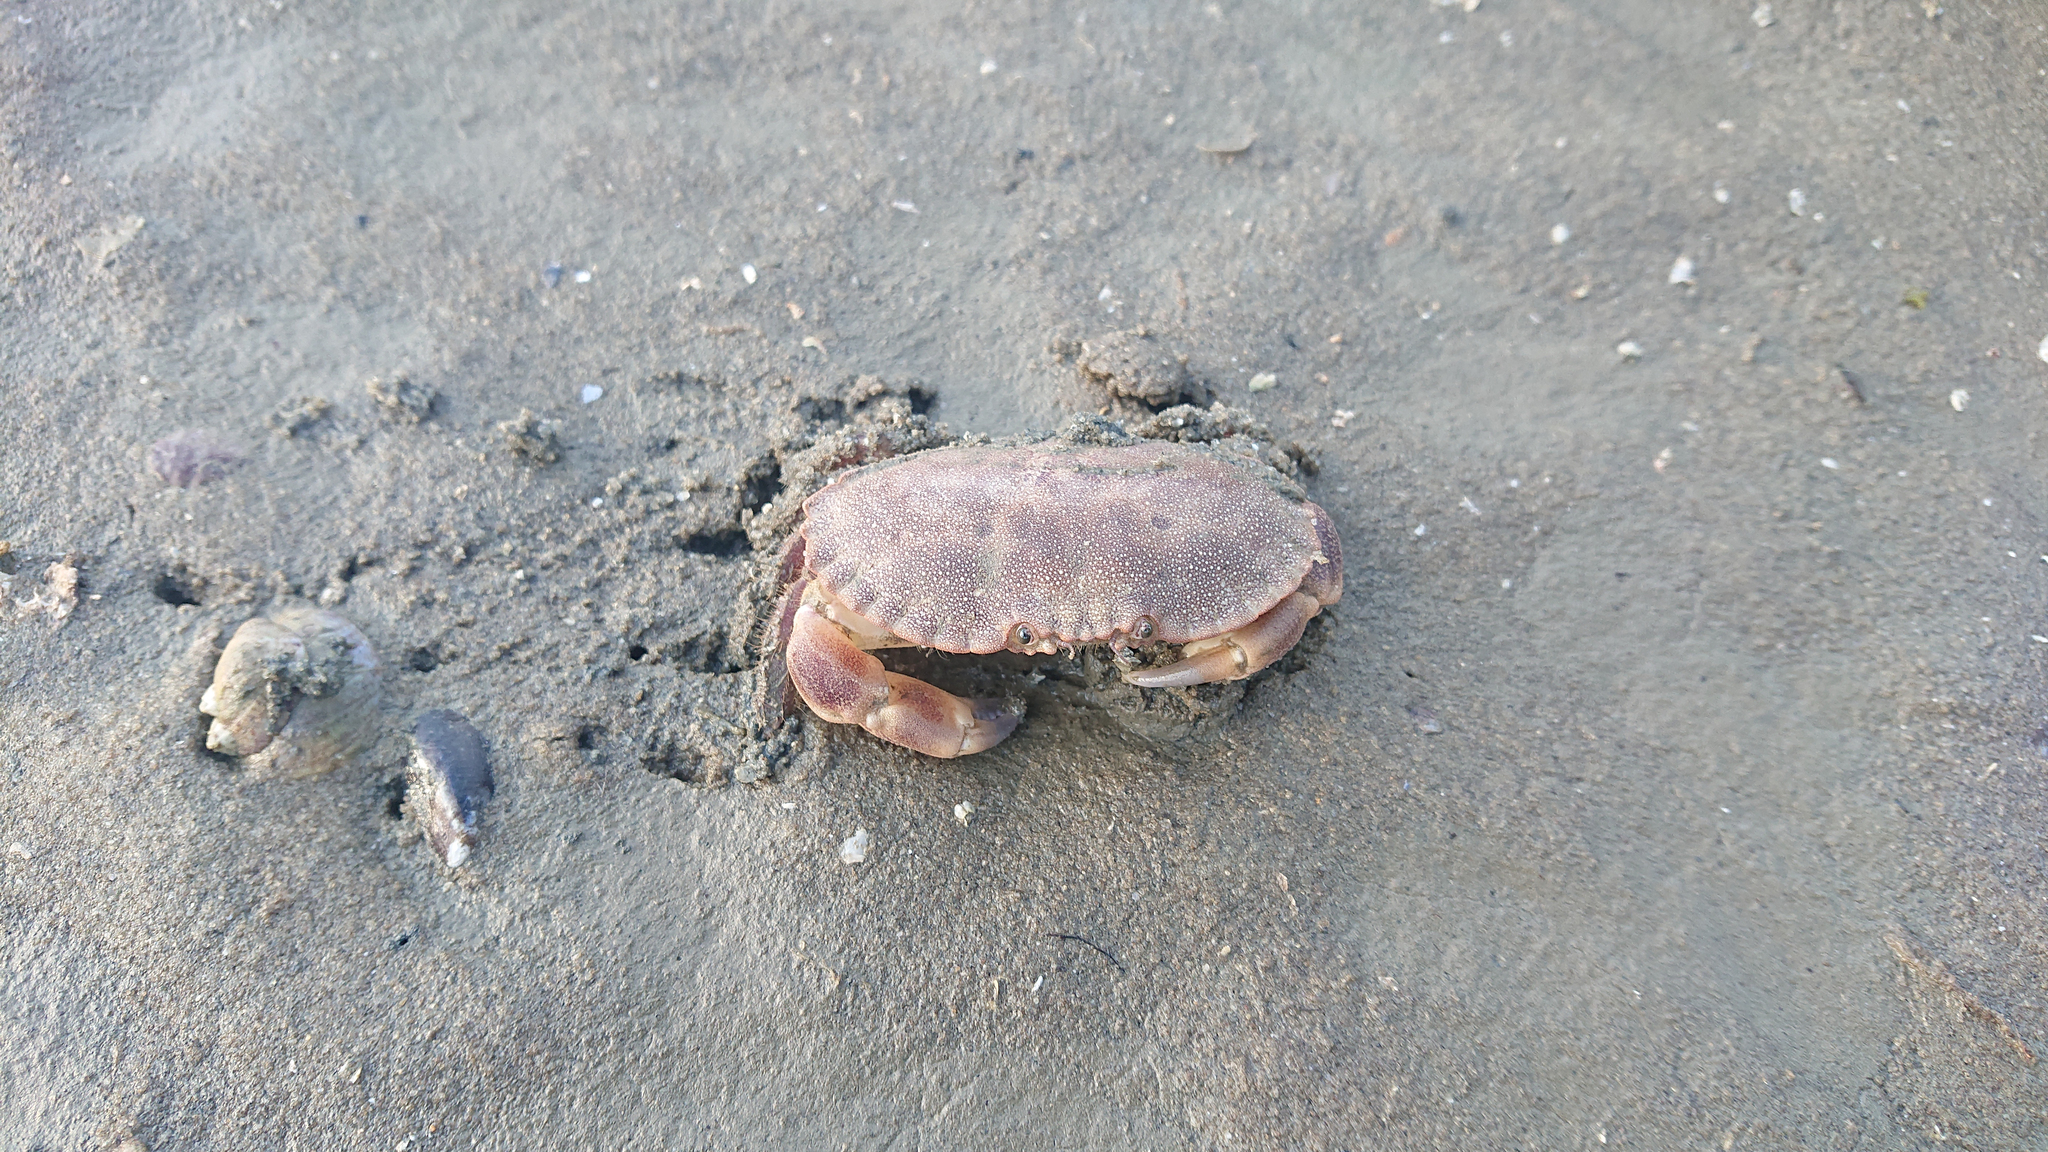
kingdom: Animalia
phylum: Arthropoda
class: Malacostraca
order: Decapoda
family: Cancridae
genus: Cancer
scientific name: Cancer pagurus
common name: Edible crab
